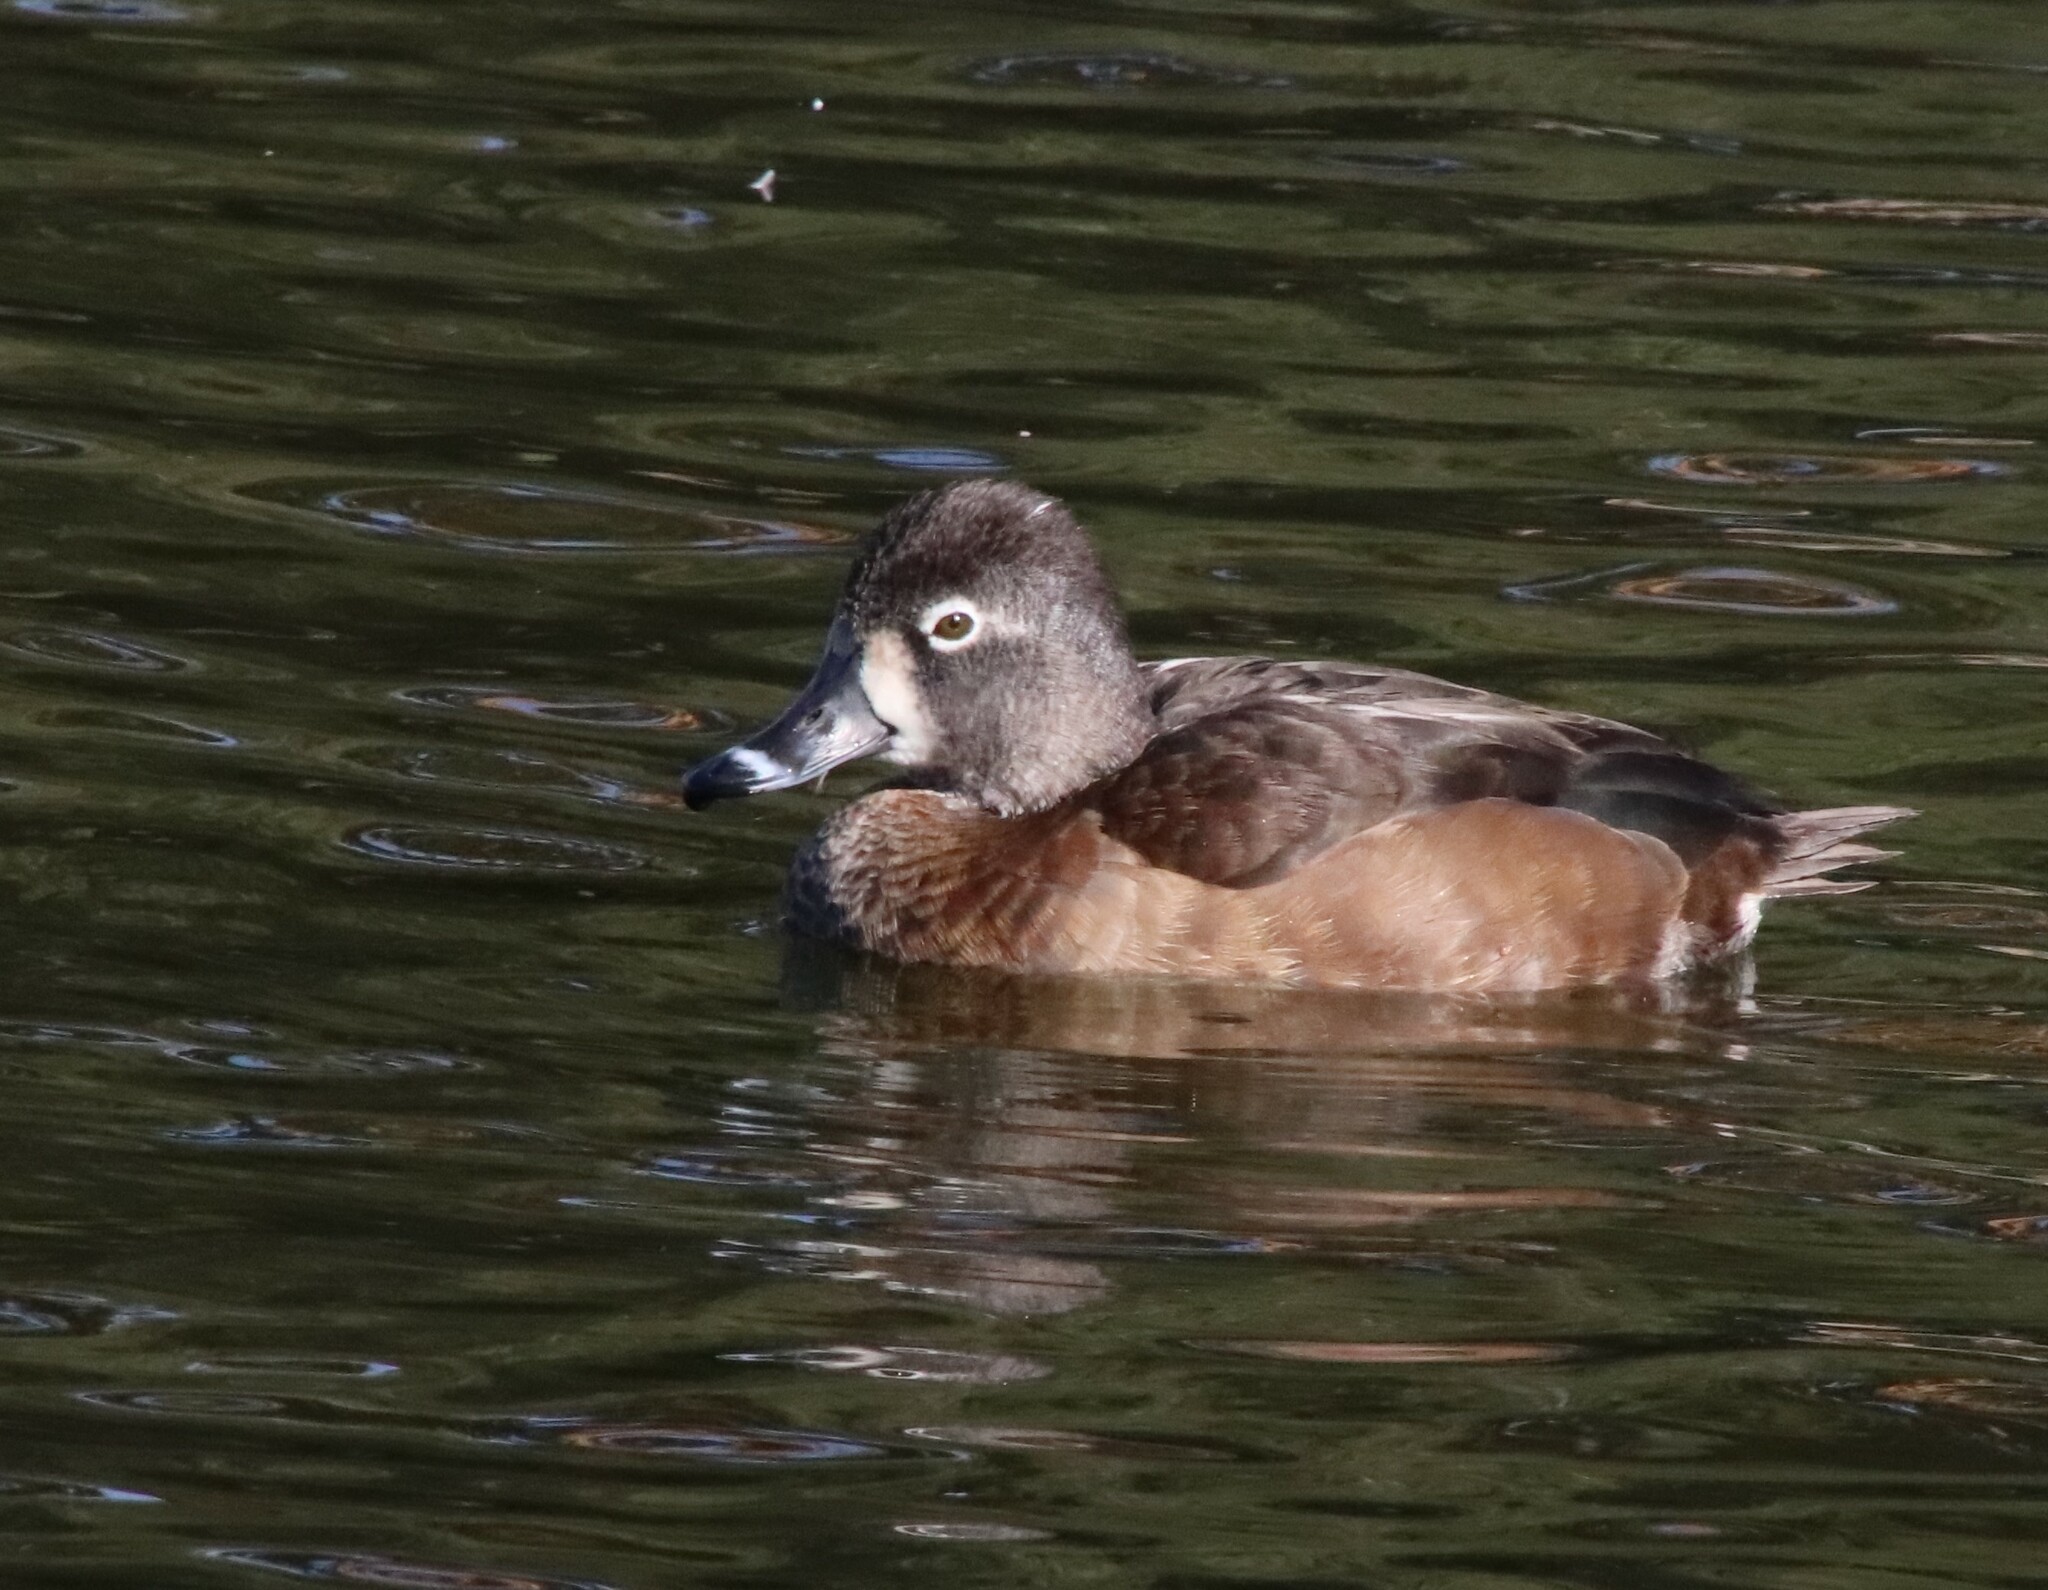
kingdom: Animalia
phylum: Chordata
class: Aves
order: Anseriformes
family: Anatidae
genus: Aythya
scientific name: Aythya collaris
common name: Ring-necked duck
